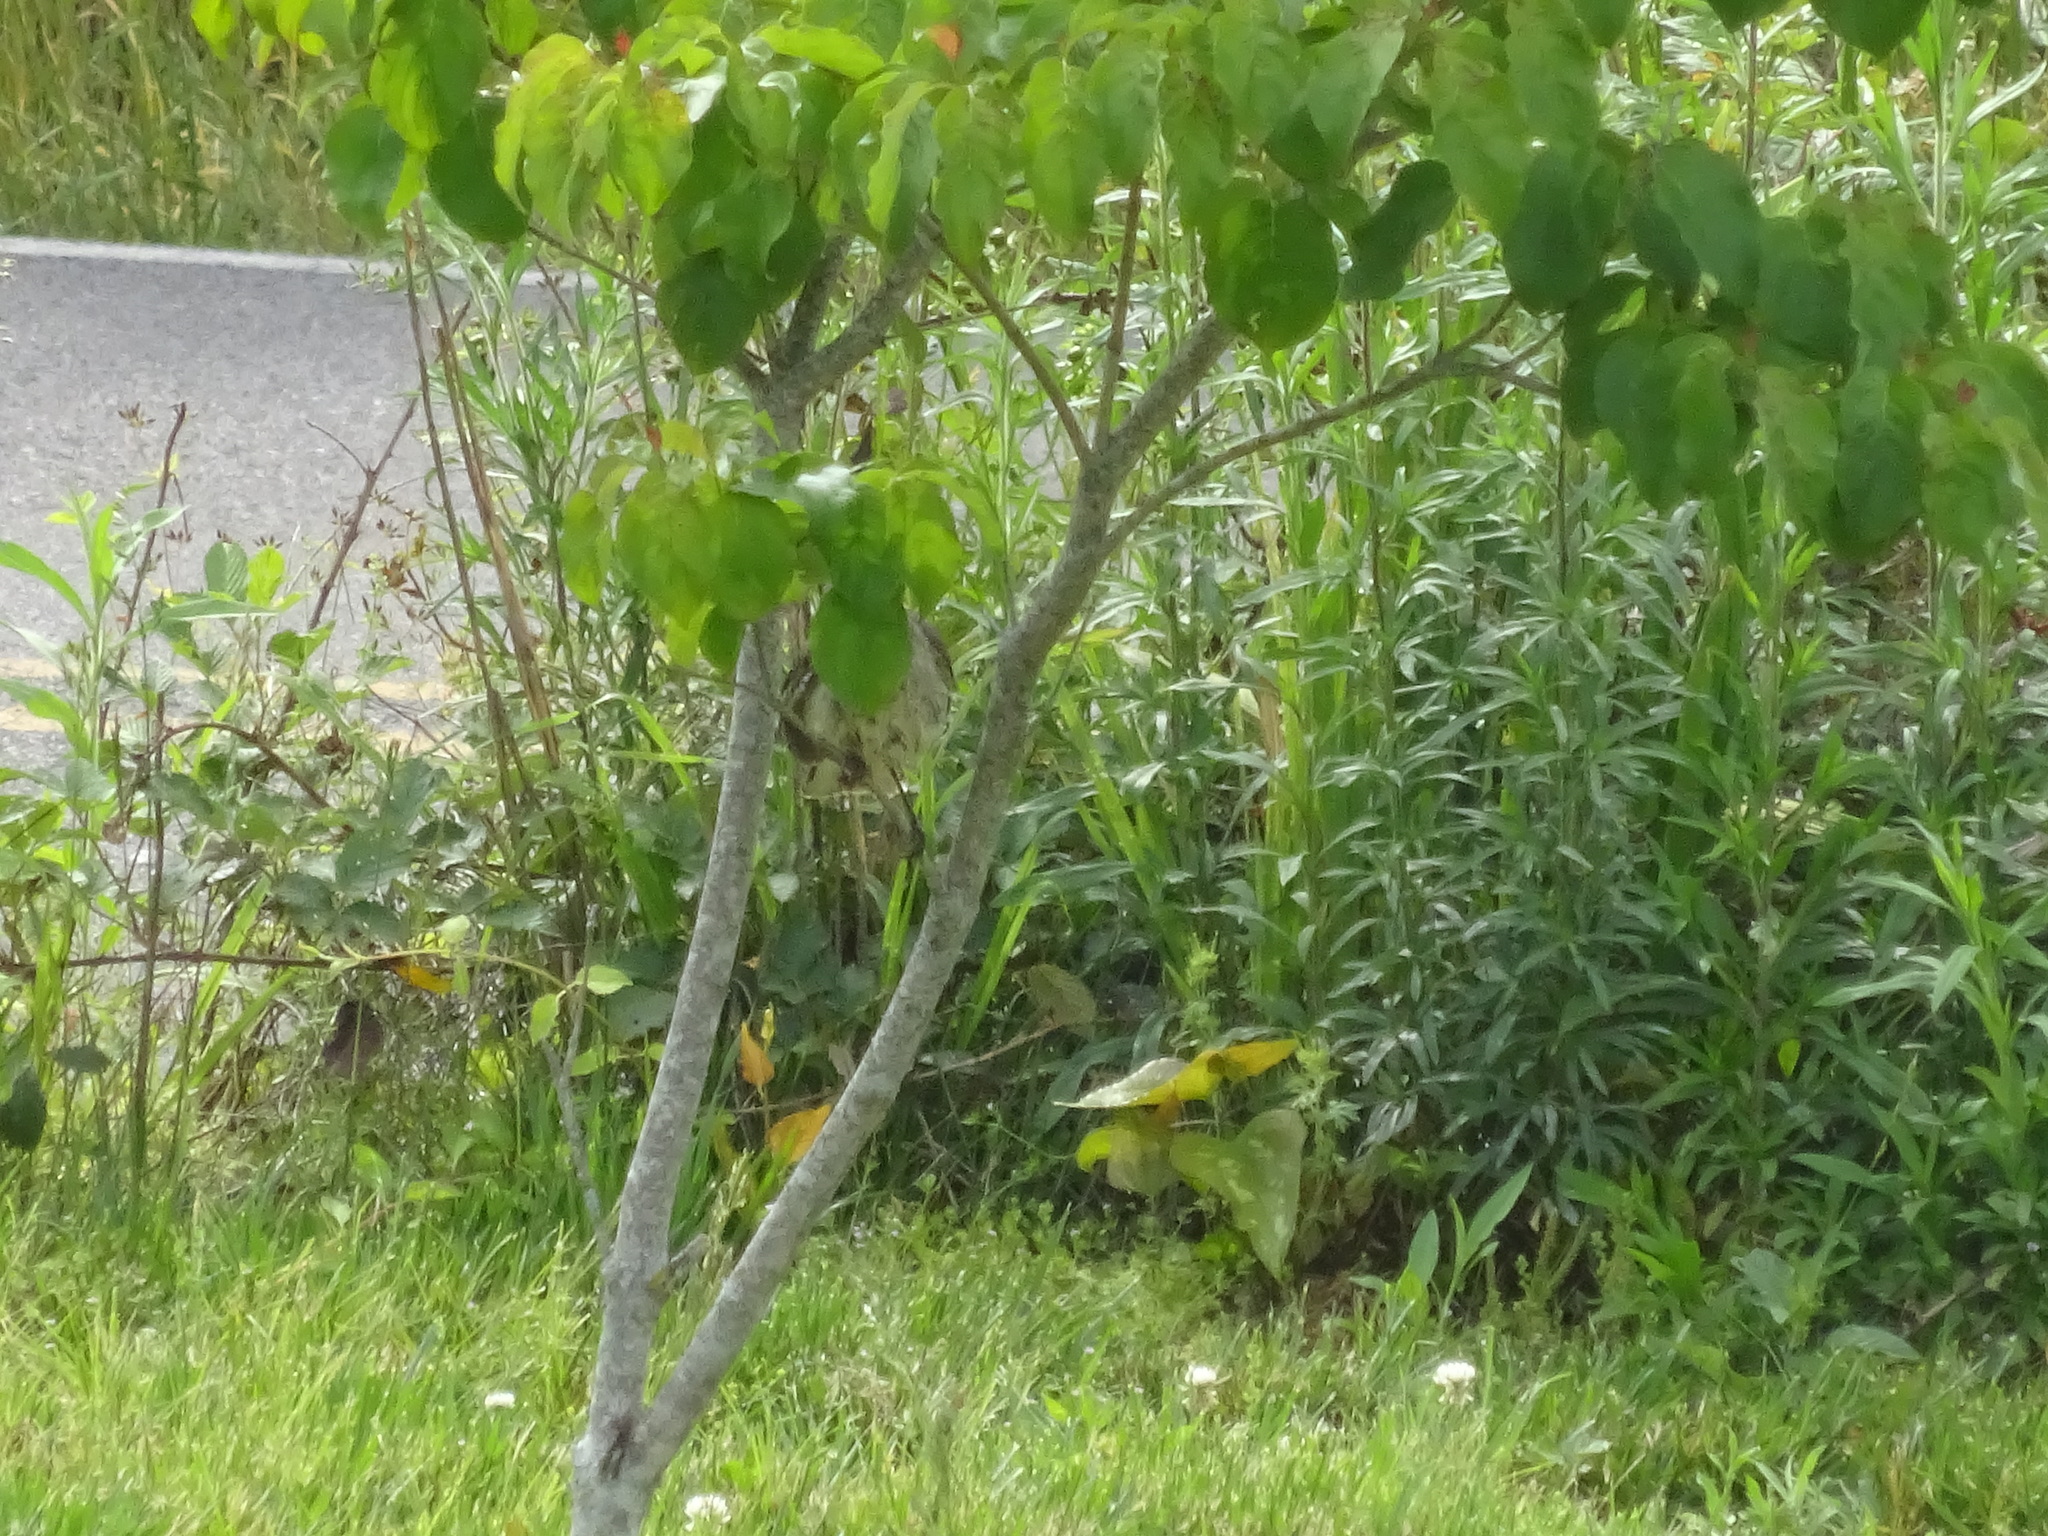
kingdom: Animalia
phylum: Chordata
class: Aves
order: Passeriformes
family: Mimidae
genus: Mimus
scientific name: Mimus polyglottos
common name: Northern mockingbird
